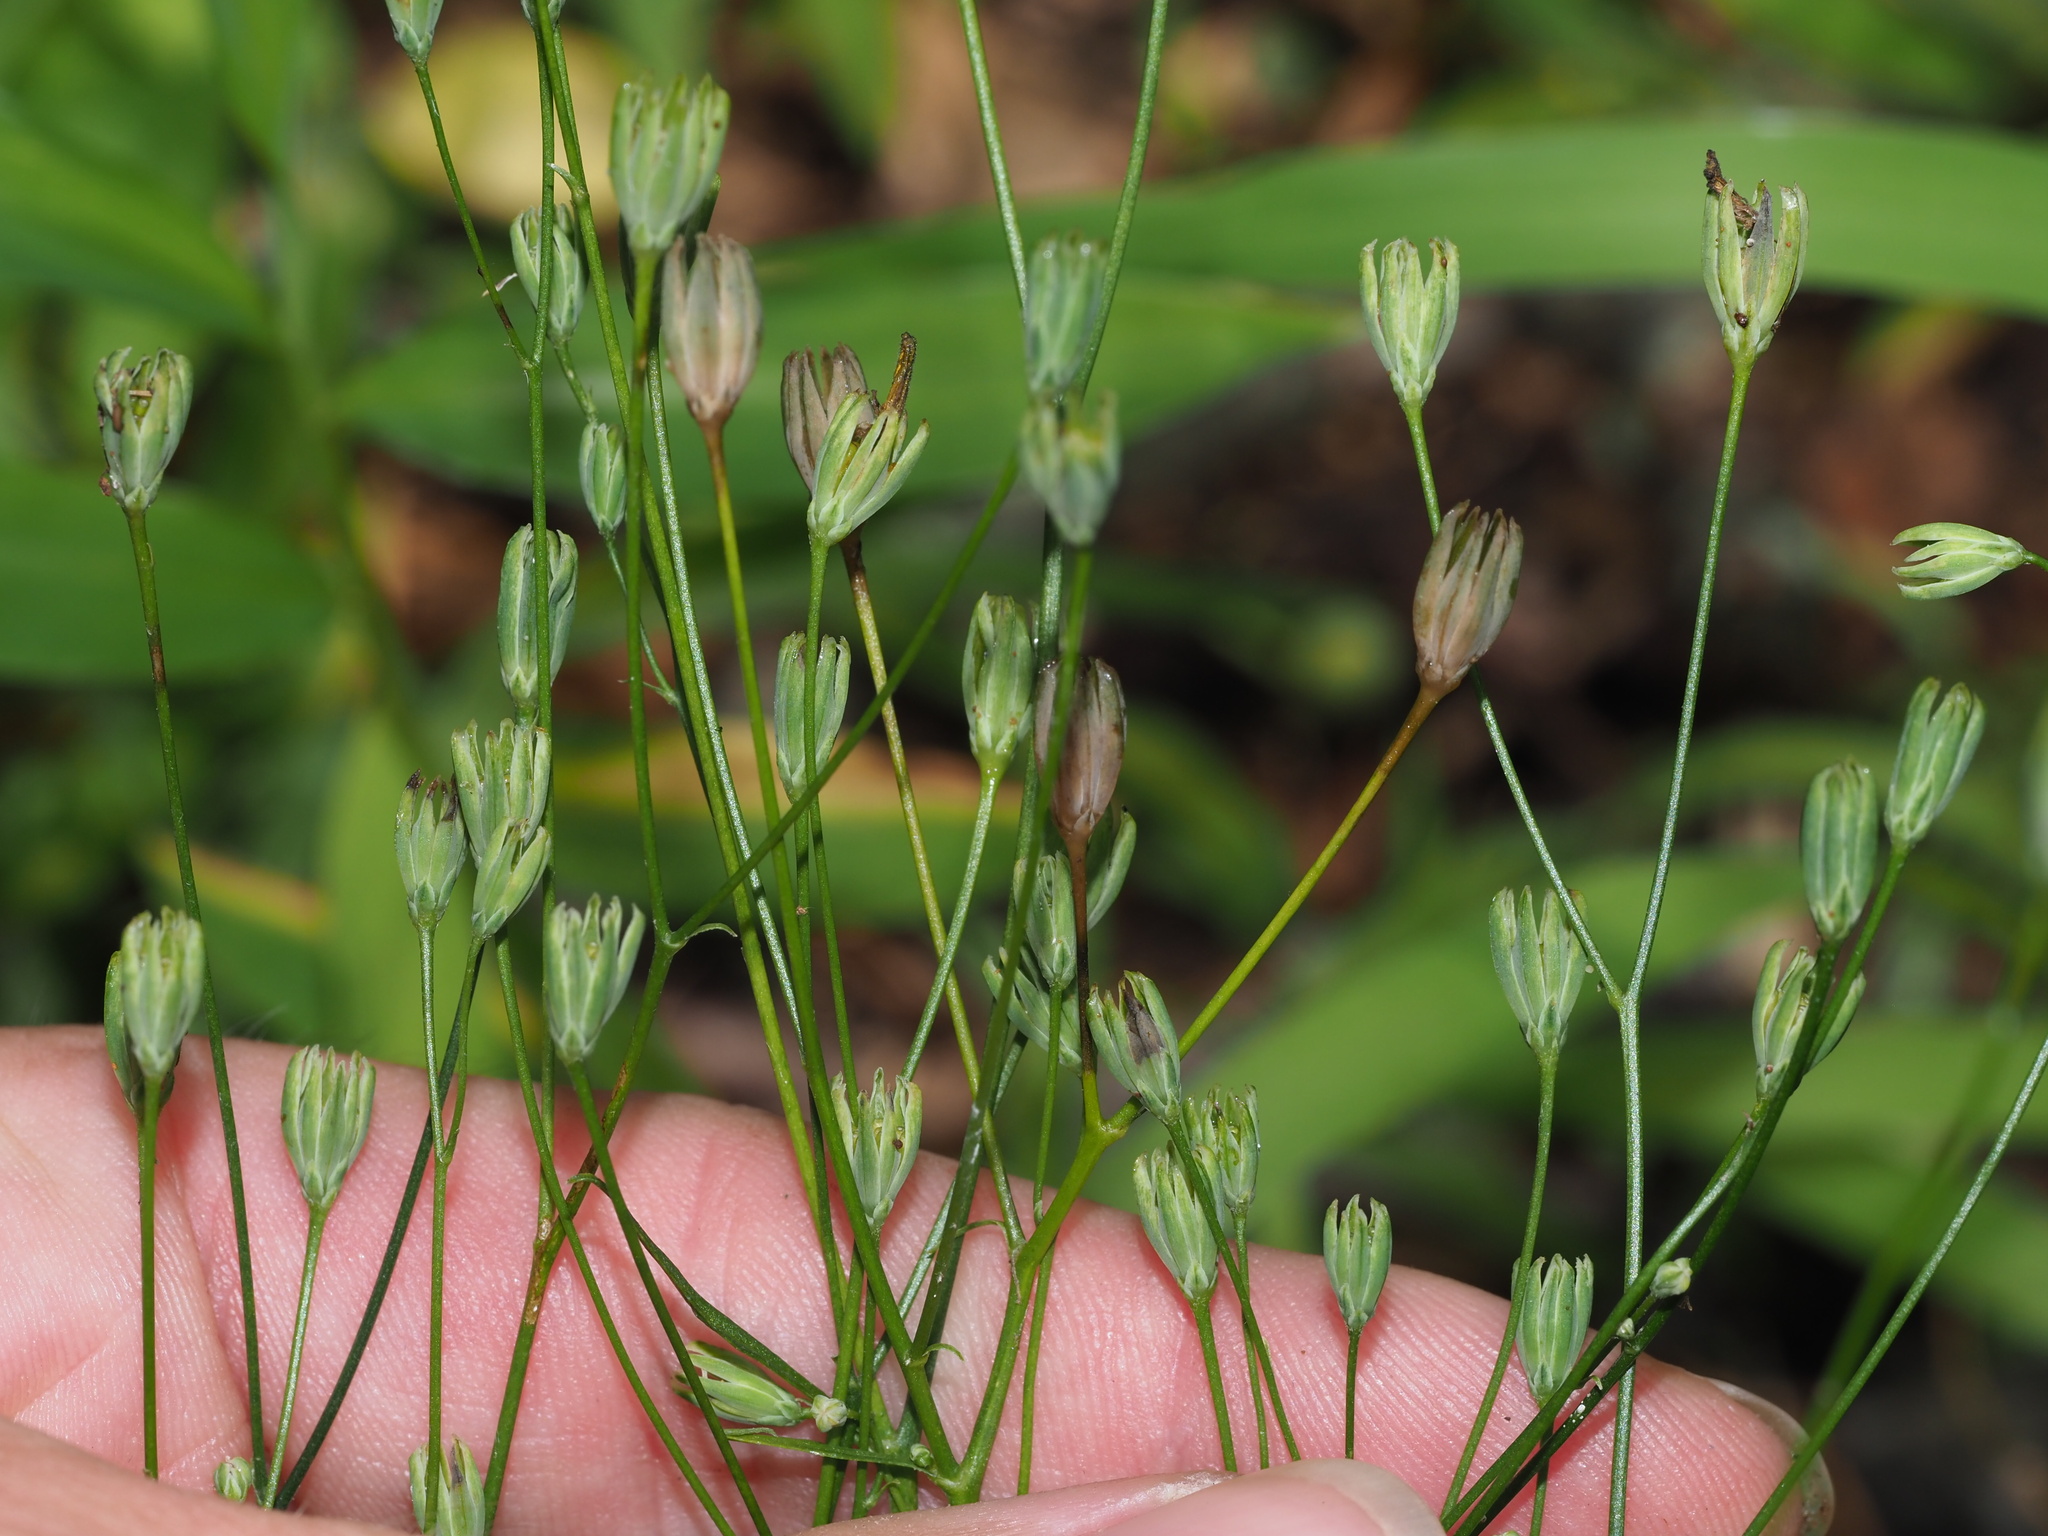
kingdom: Plantae
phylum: Tracheophyta
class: Magnoliopsida
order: Asterales
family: Asteraceae
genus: Lapsana
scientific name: Lapsana communis
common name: Nipplewort
